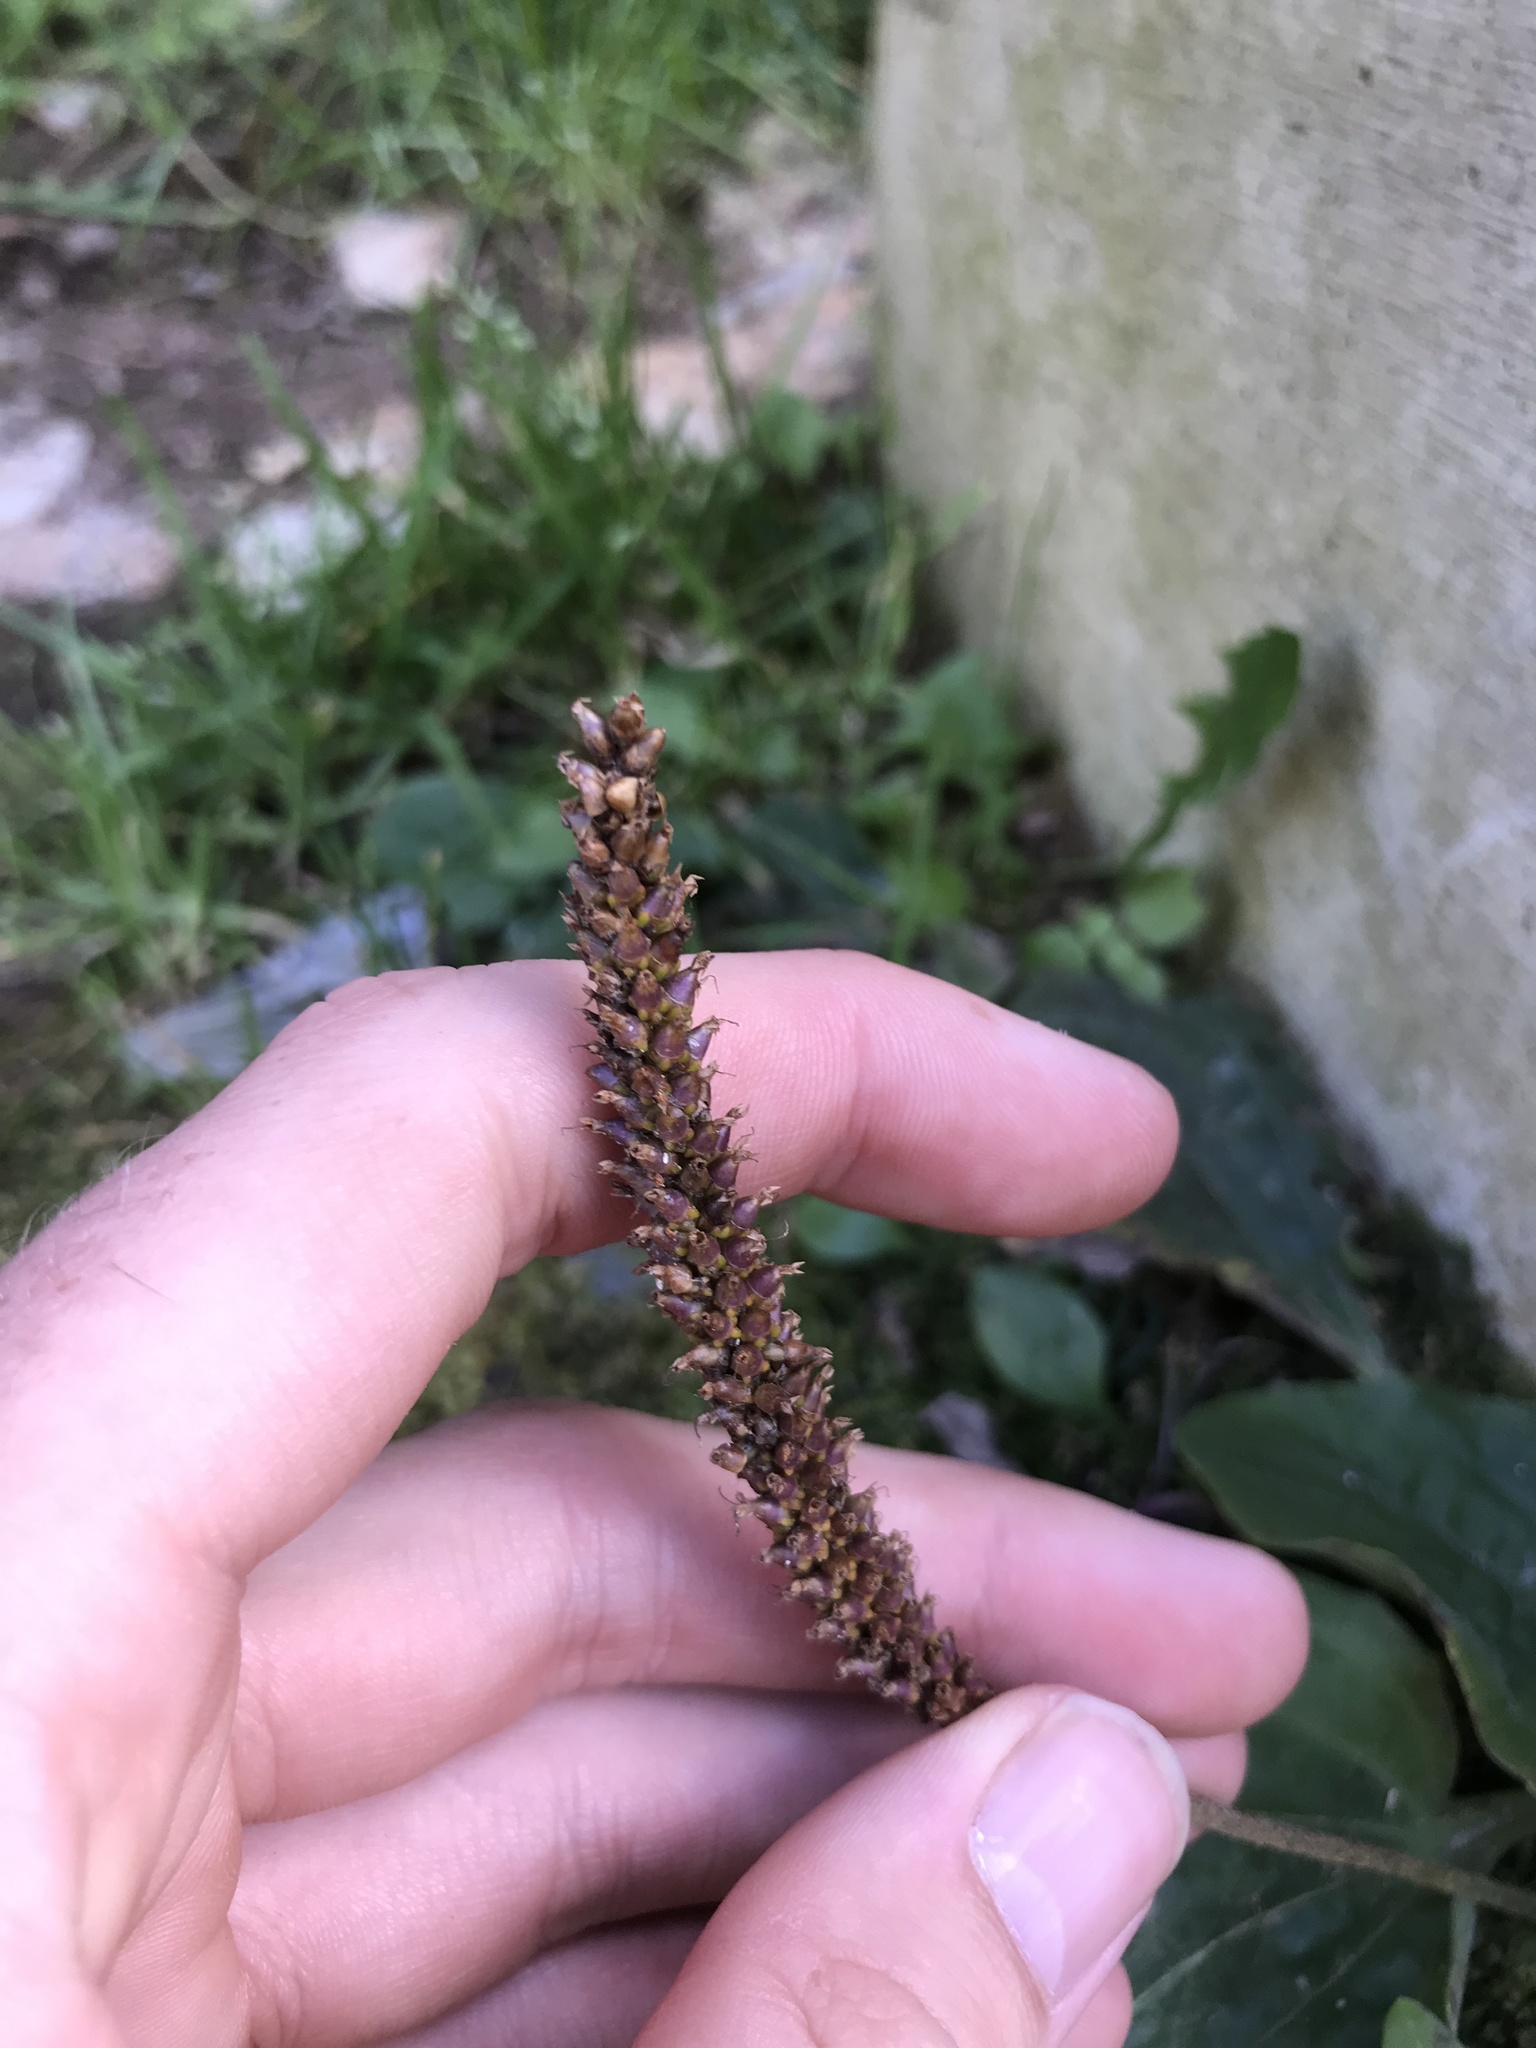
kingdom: Plantae
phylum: Tracheophyta
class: Magnoliopsida
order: Lamiales
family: Plantaginaceae
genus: Plantago
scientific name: Plantago major
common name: Common plantain
